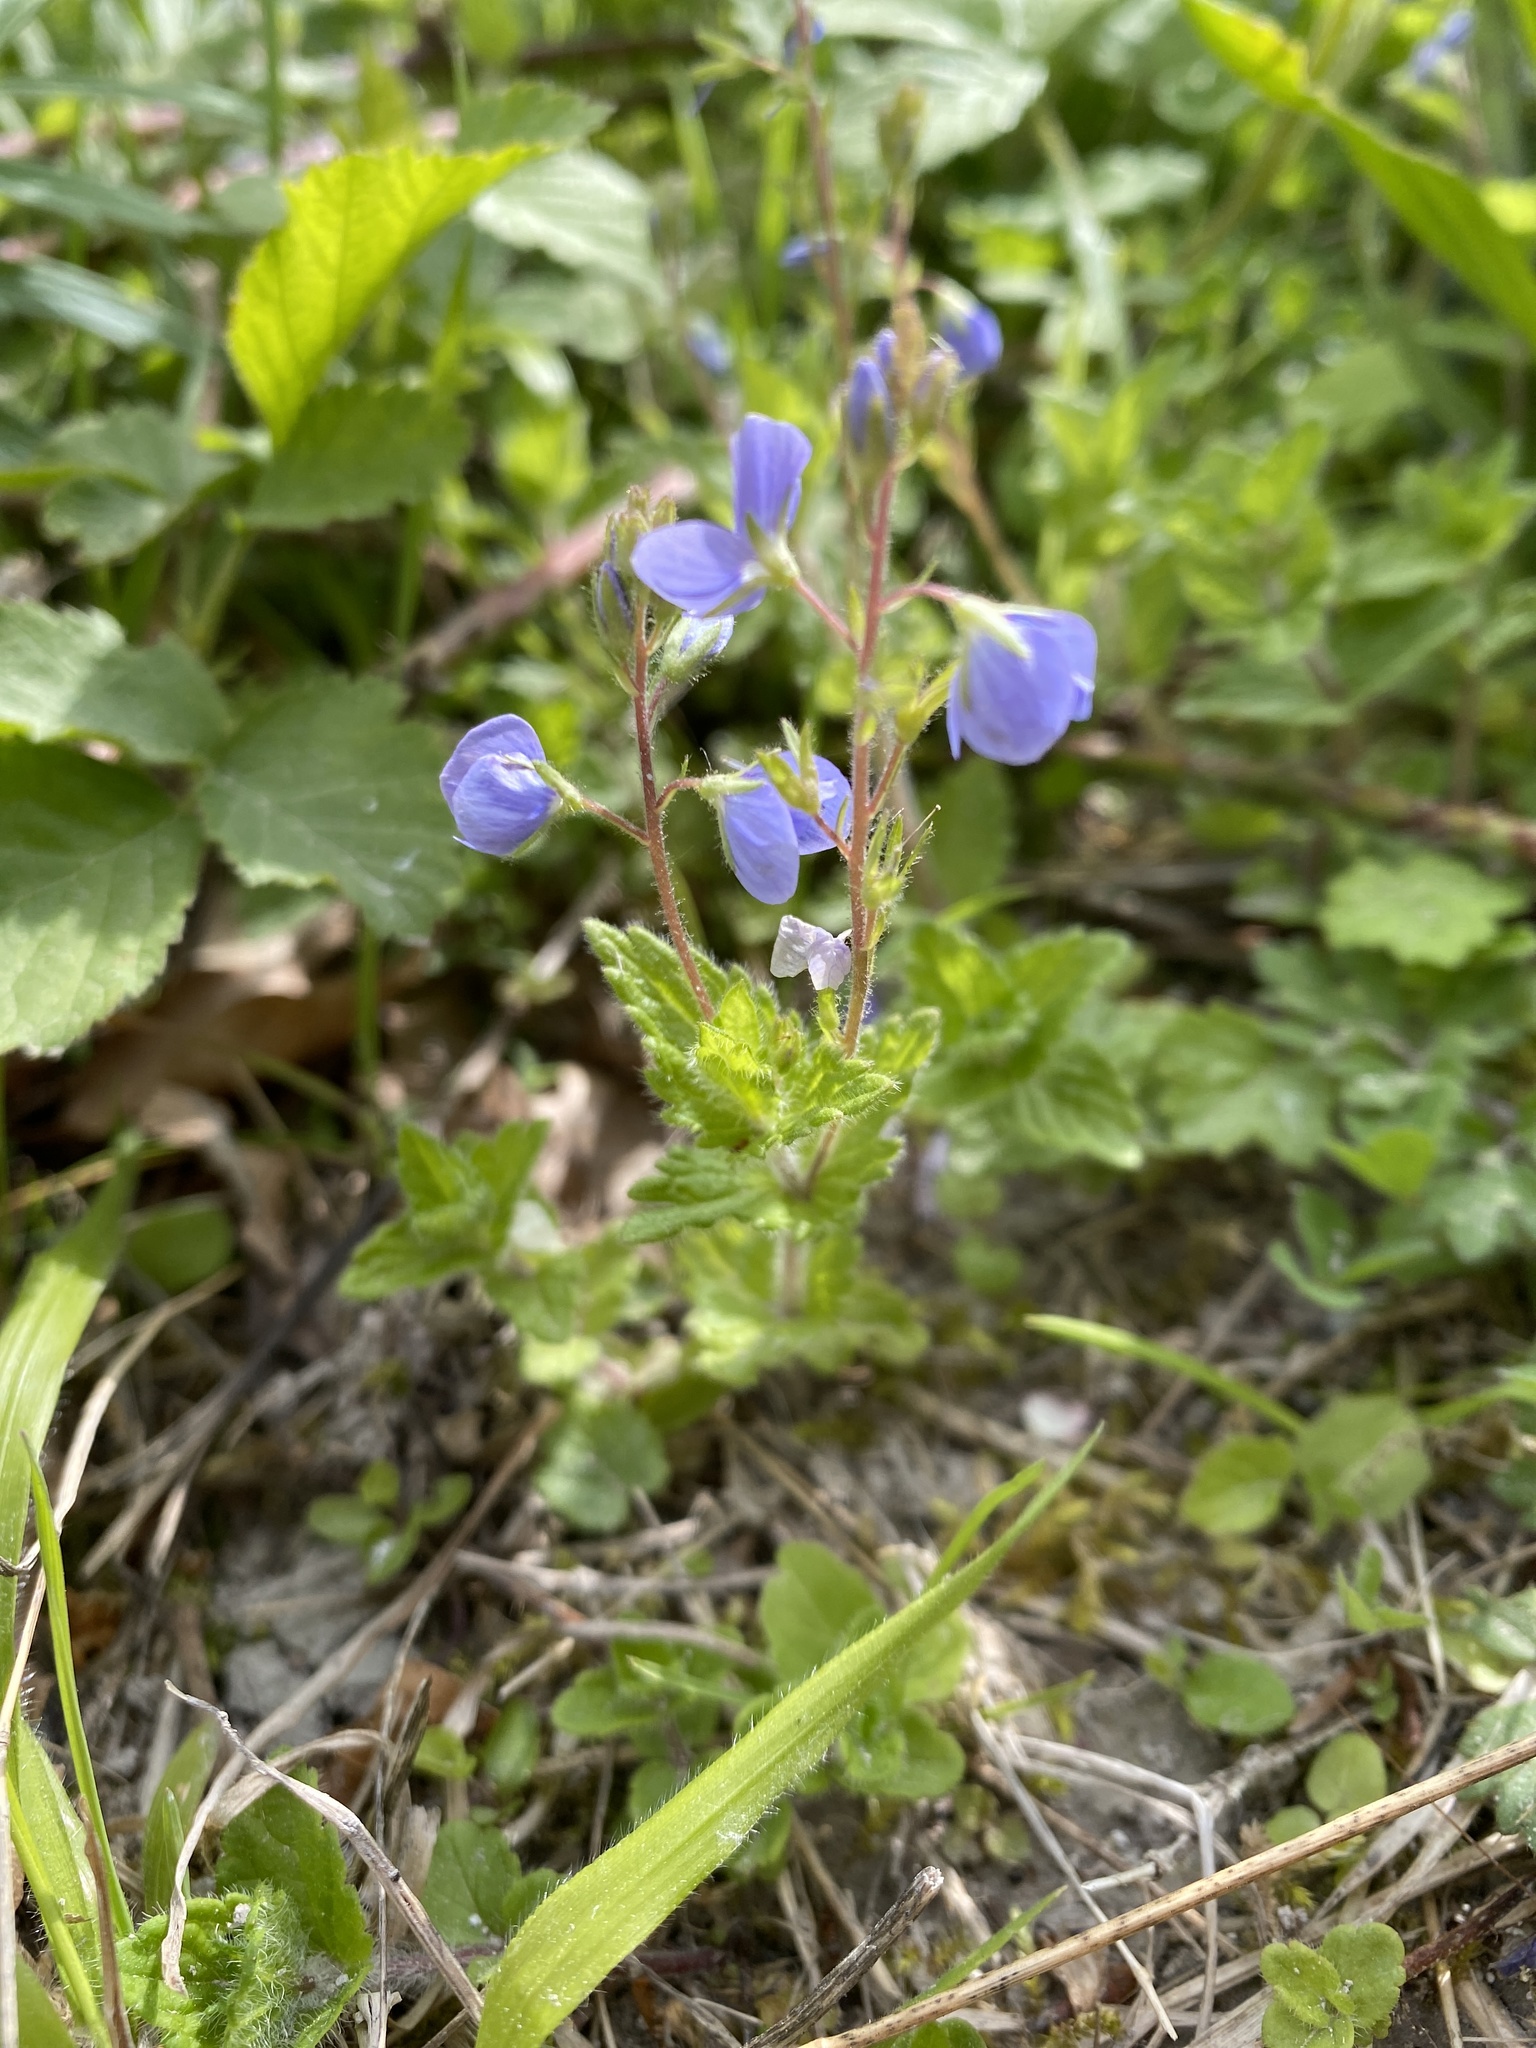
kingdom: Plantae
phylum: Tracheophyta
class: Magnoliopsida
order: Lamiales
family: Plantaginaceae
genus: Veronica
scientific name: Veronica chamaedrys
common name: Germander speedwell
